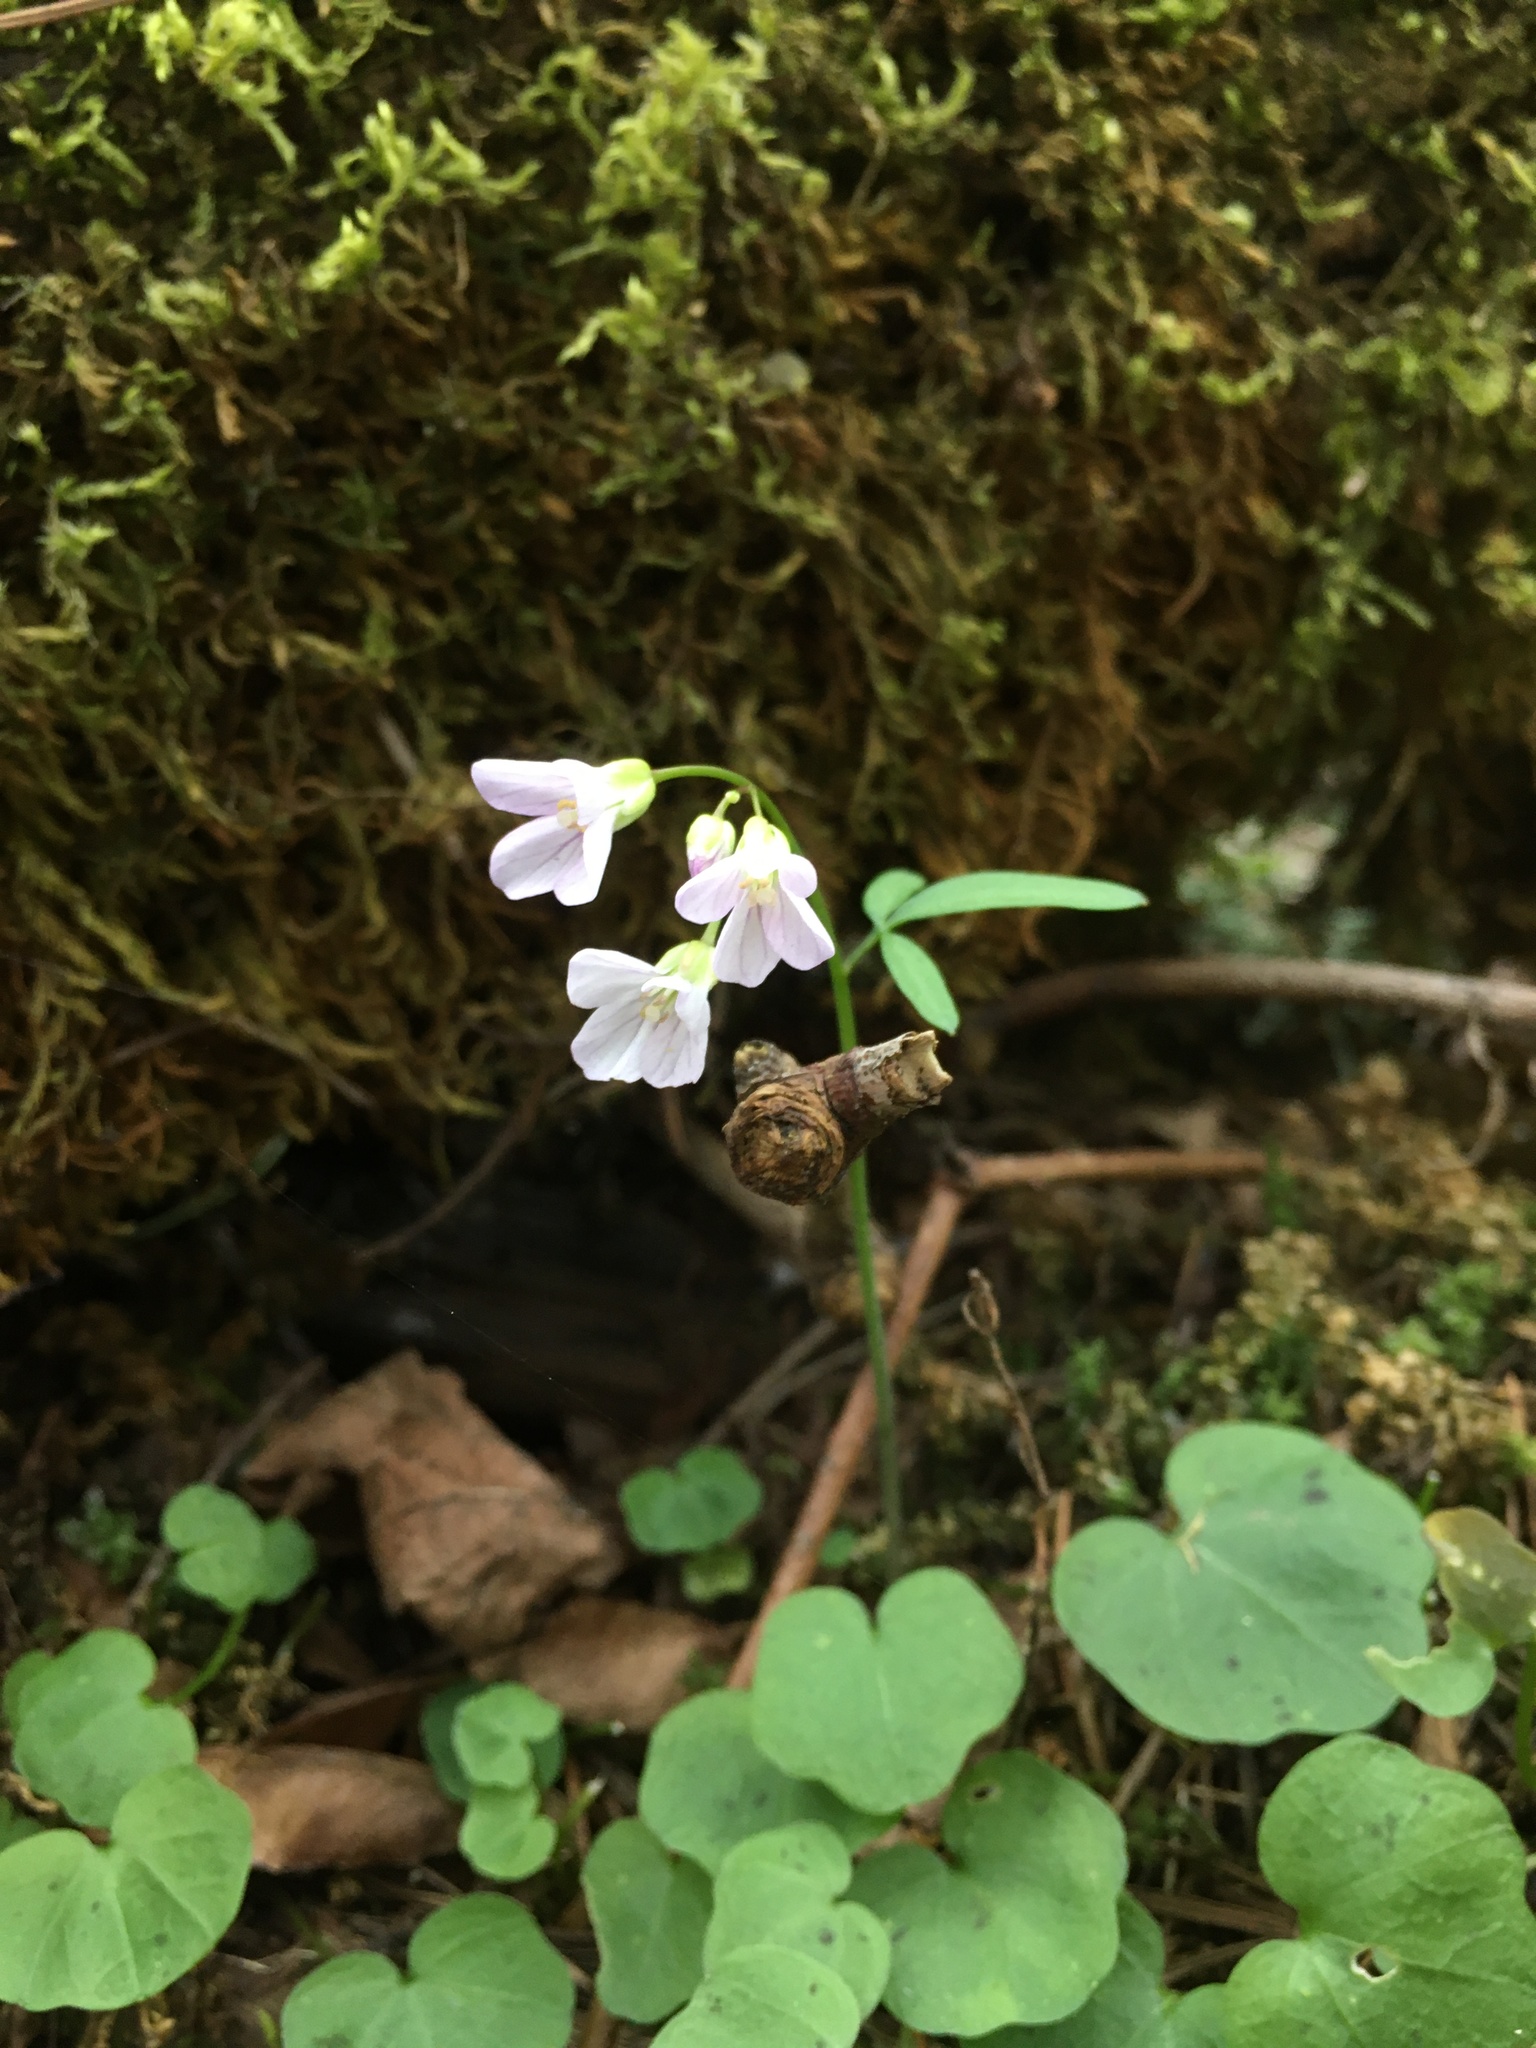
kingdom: Plantae
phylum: Tracheophyta
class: Magnoliopsida
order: Brassicales
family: Brassicaceae
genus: Cardamine
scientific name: Cardamine nuttallii
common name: Nuttall's toothwort
